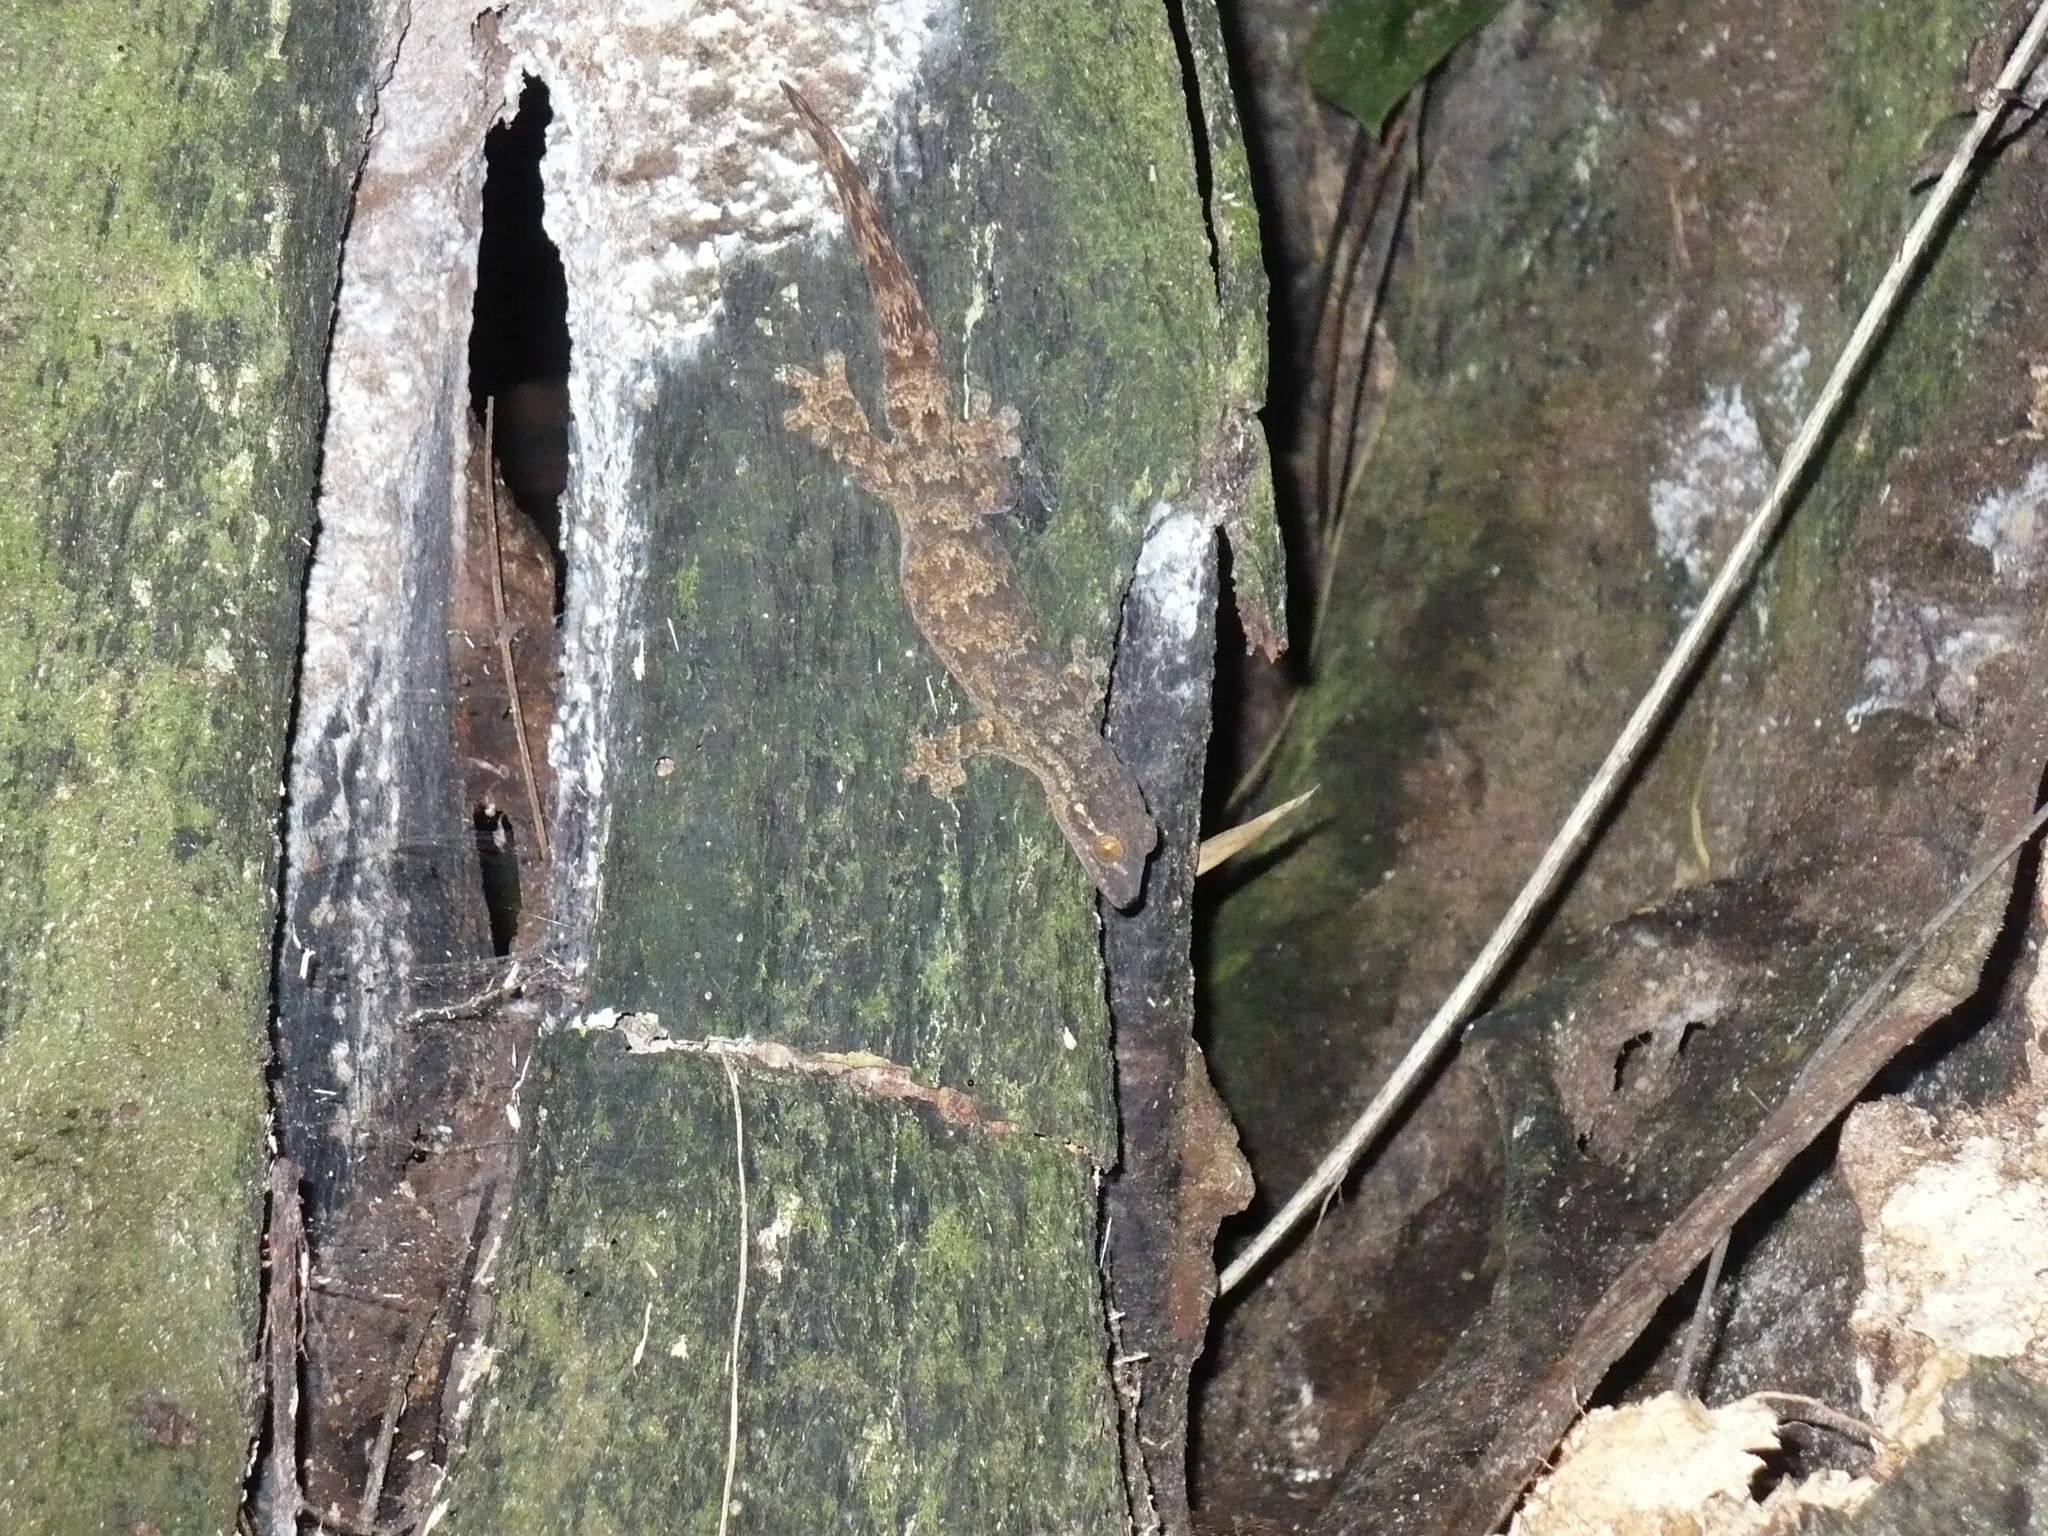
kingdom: Animalia
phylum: Chordata
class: Squamata
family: Phyllodactylidae
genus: Thecadactylus
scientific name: Thecadactylus rapicauda
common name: Turnip-tailed gecko
